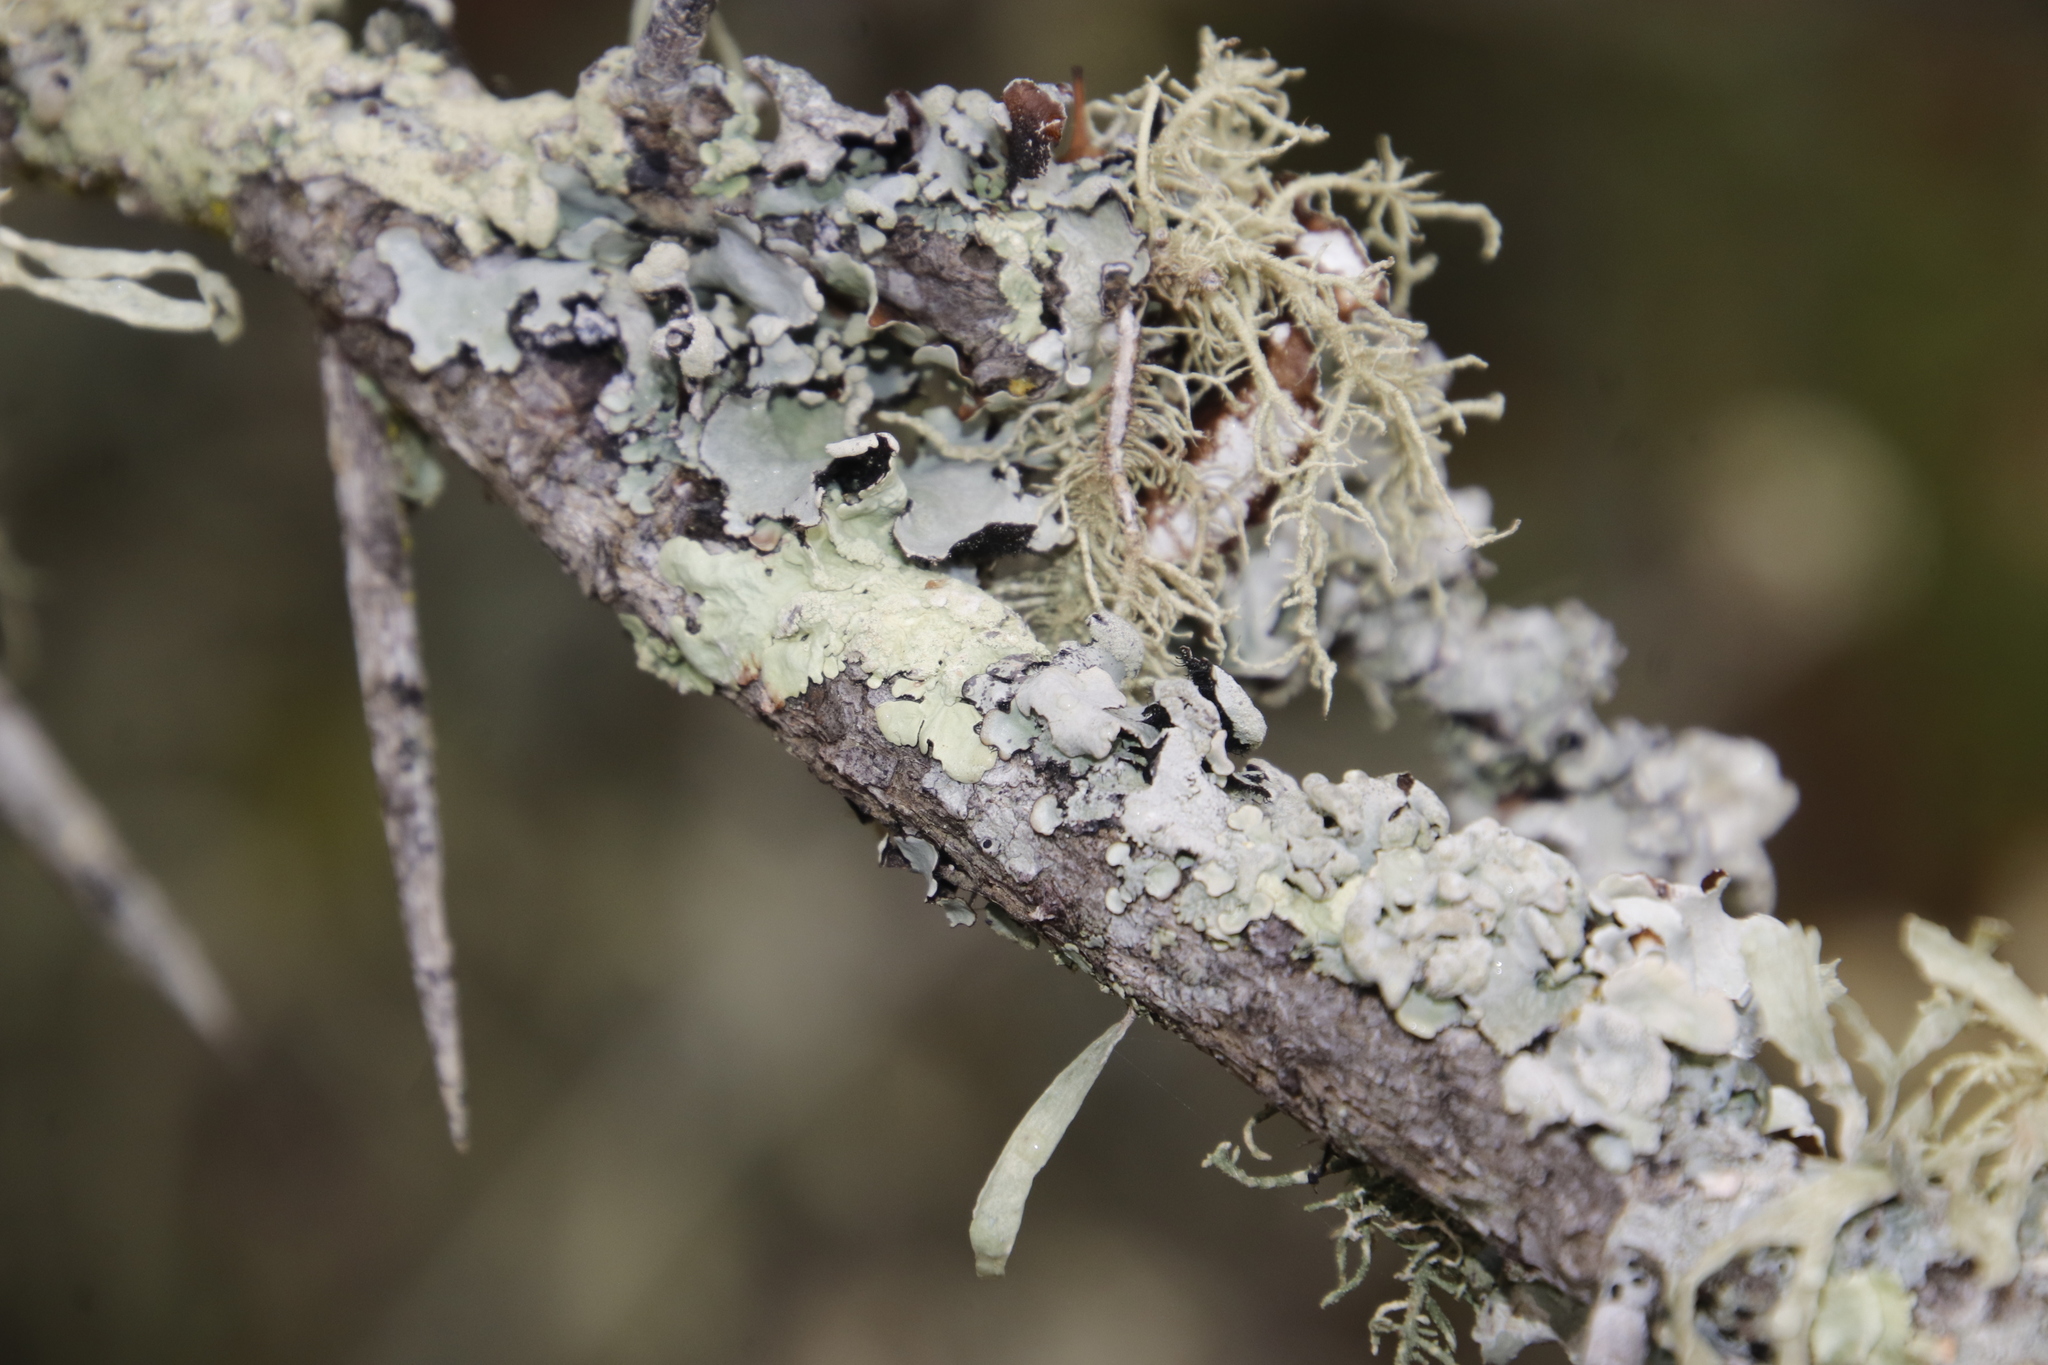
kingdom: Fungi
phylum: Ascomycota
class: Lecanoromycetes
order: Lecanorales
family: Parmeliaceae
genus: Flavoparmelia
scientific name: Flavoparmelia soredians
